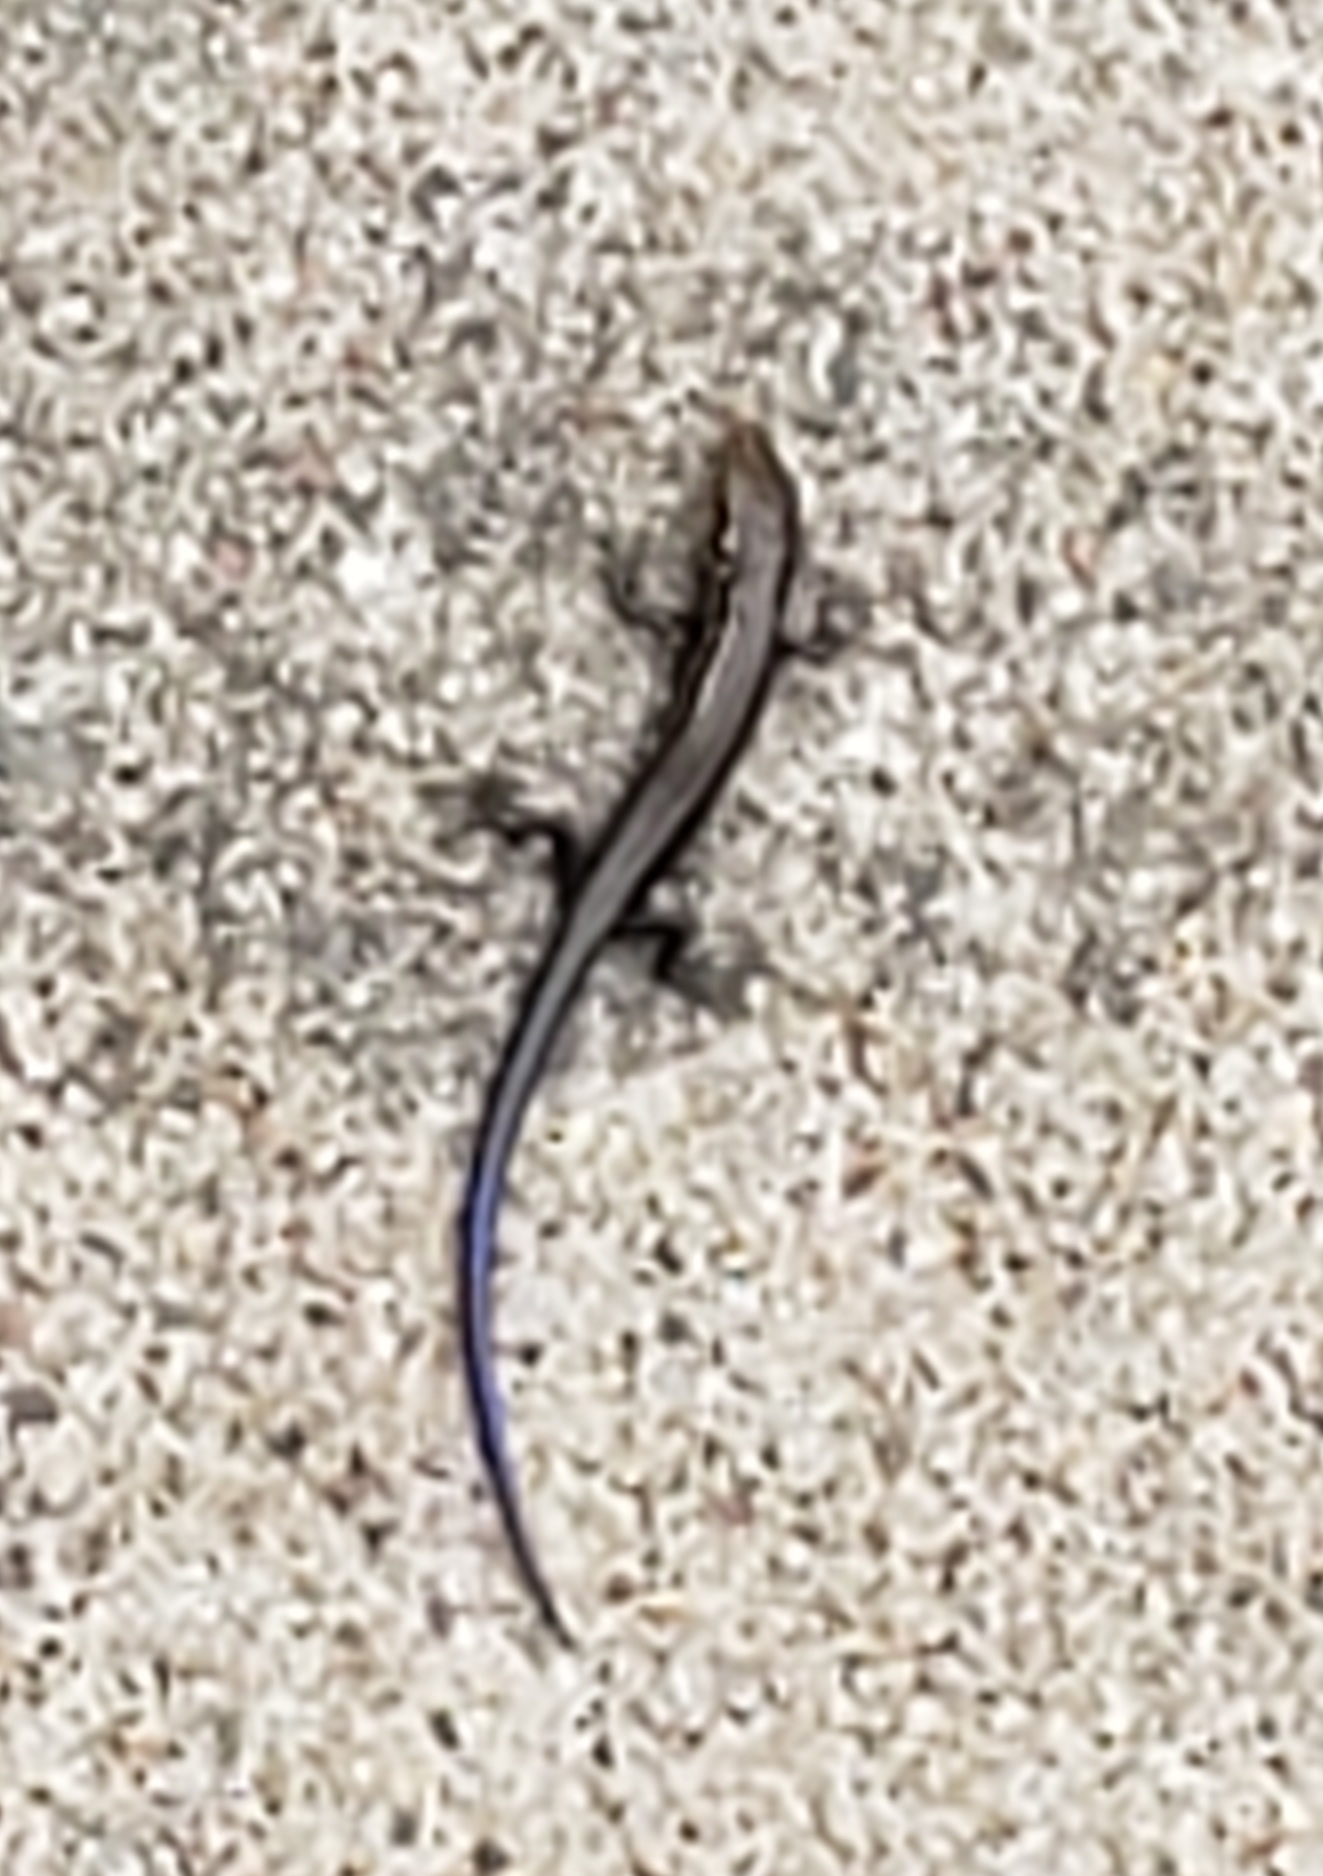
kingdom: Animalia
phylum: Chordata
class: Squamata
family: Scincidae
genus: Plestiodon
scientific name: Plestiodon septentrionalis
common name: Northern prairie skink
